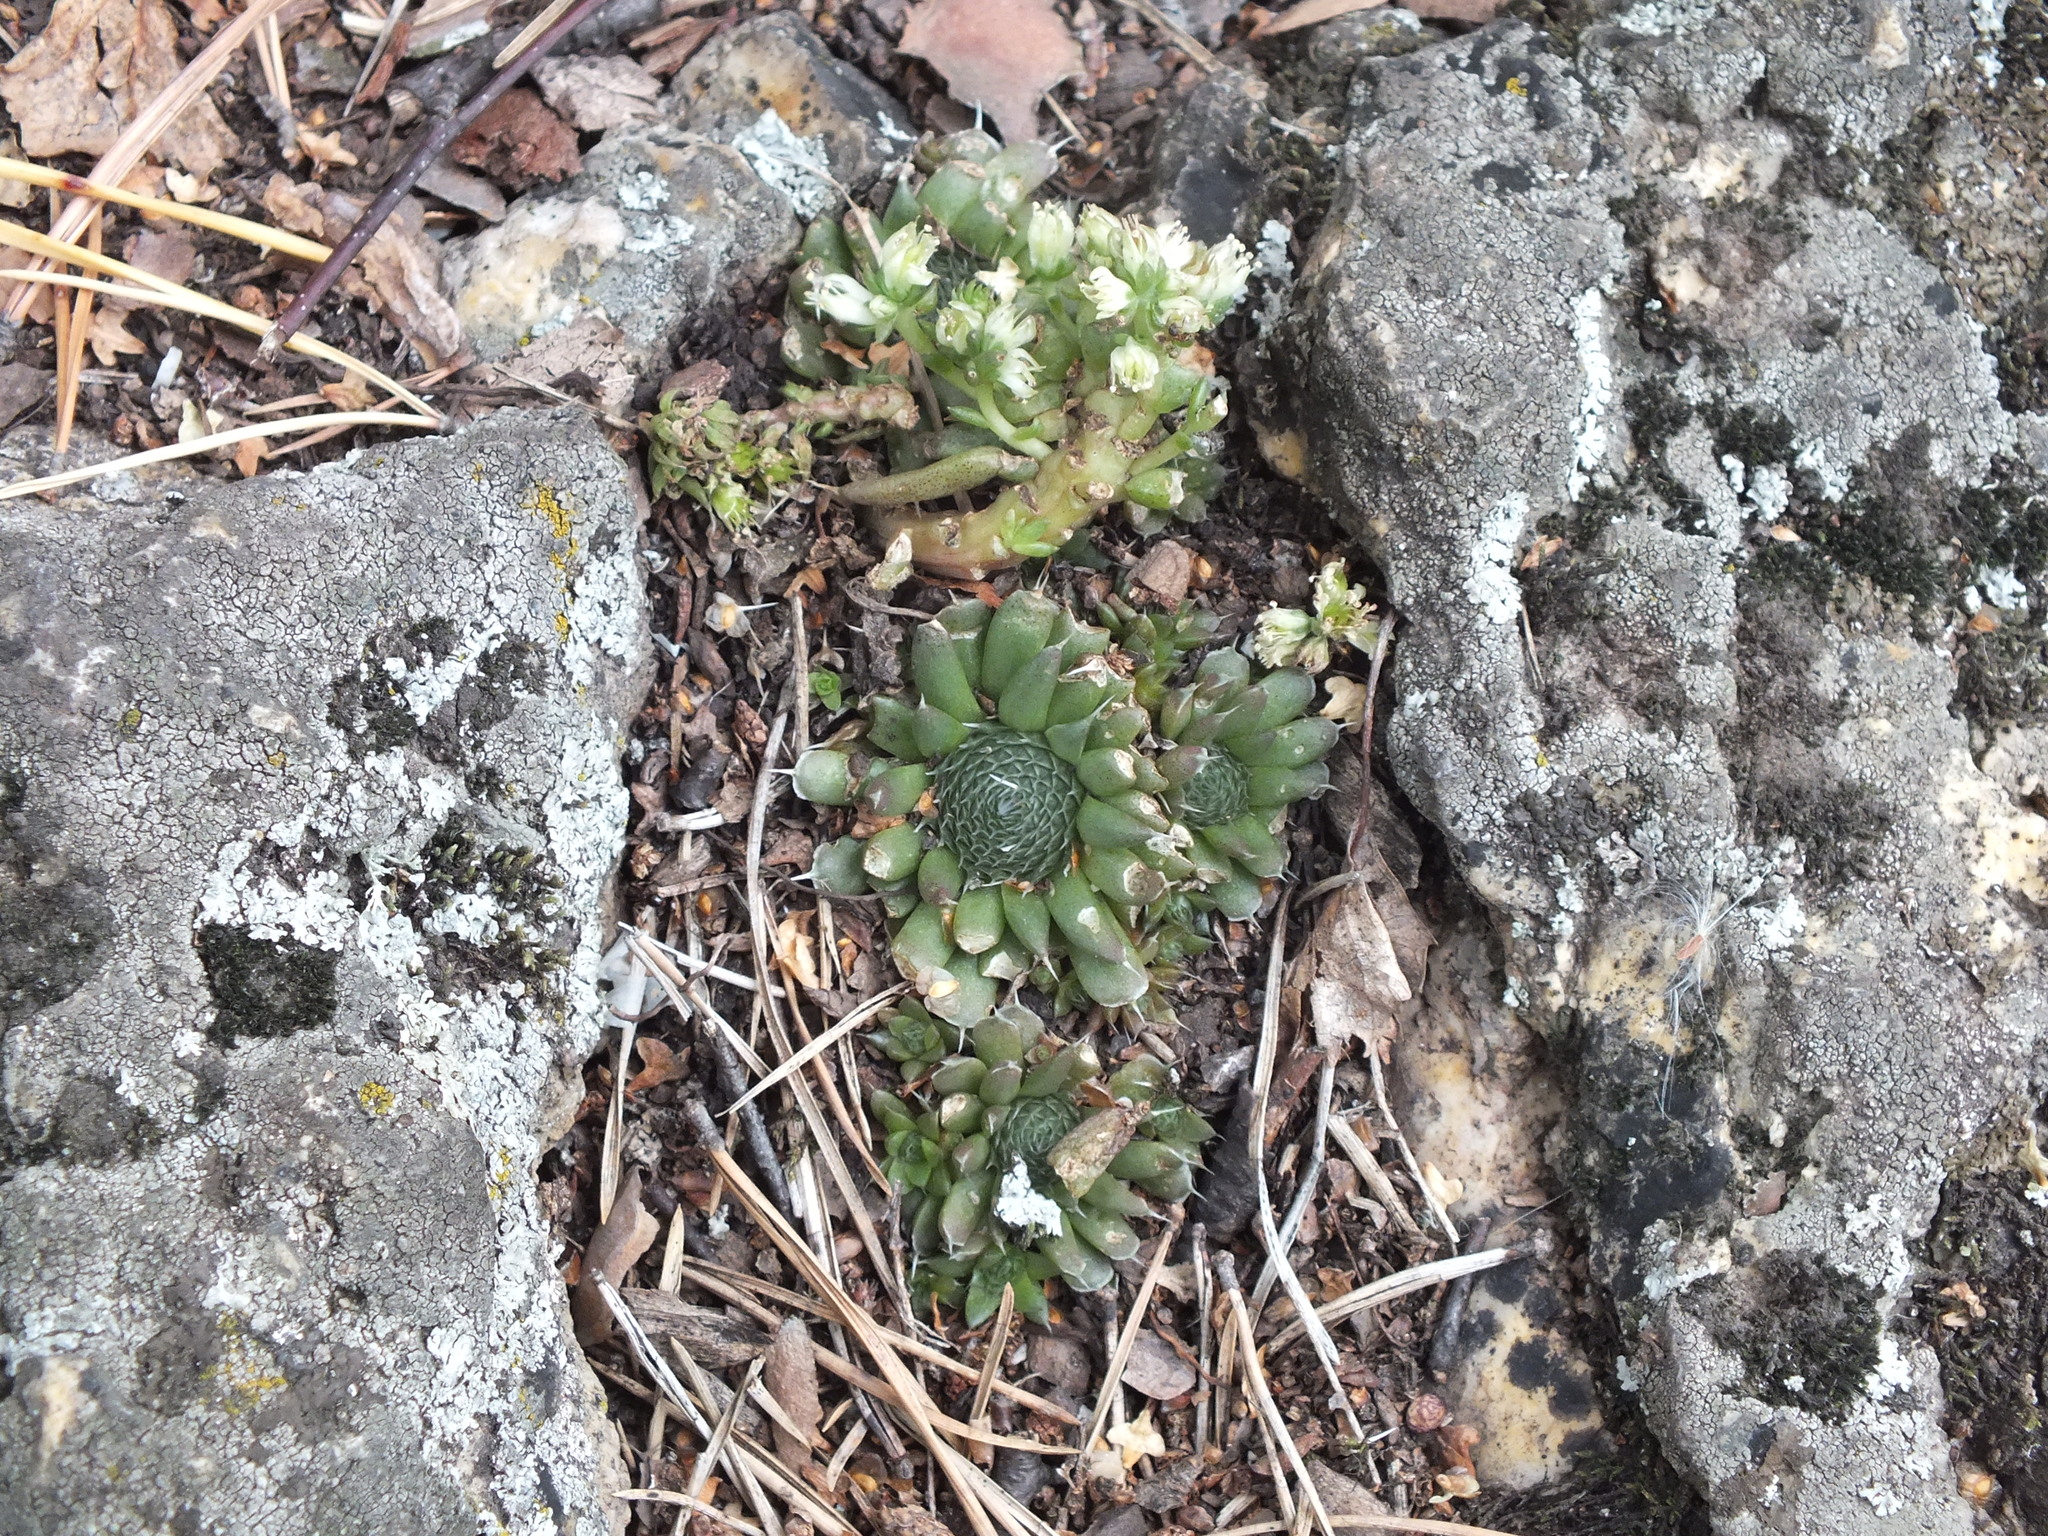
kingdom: Plantae
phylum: Tracheophyta
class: Magnoliopsida
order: Saxifragales
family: Crassulaceae
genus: Orostachys
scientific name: Orostachys spinosa
